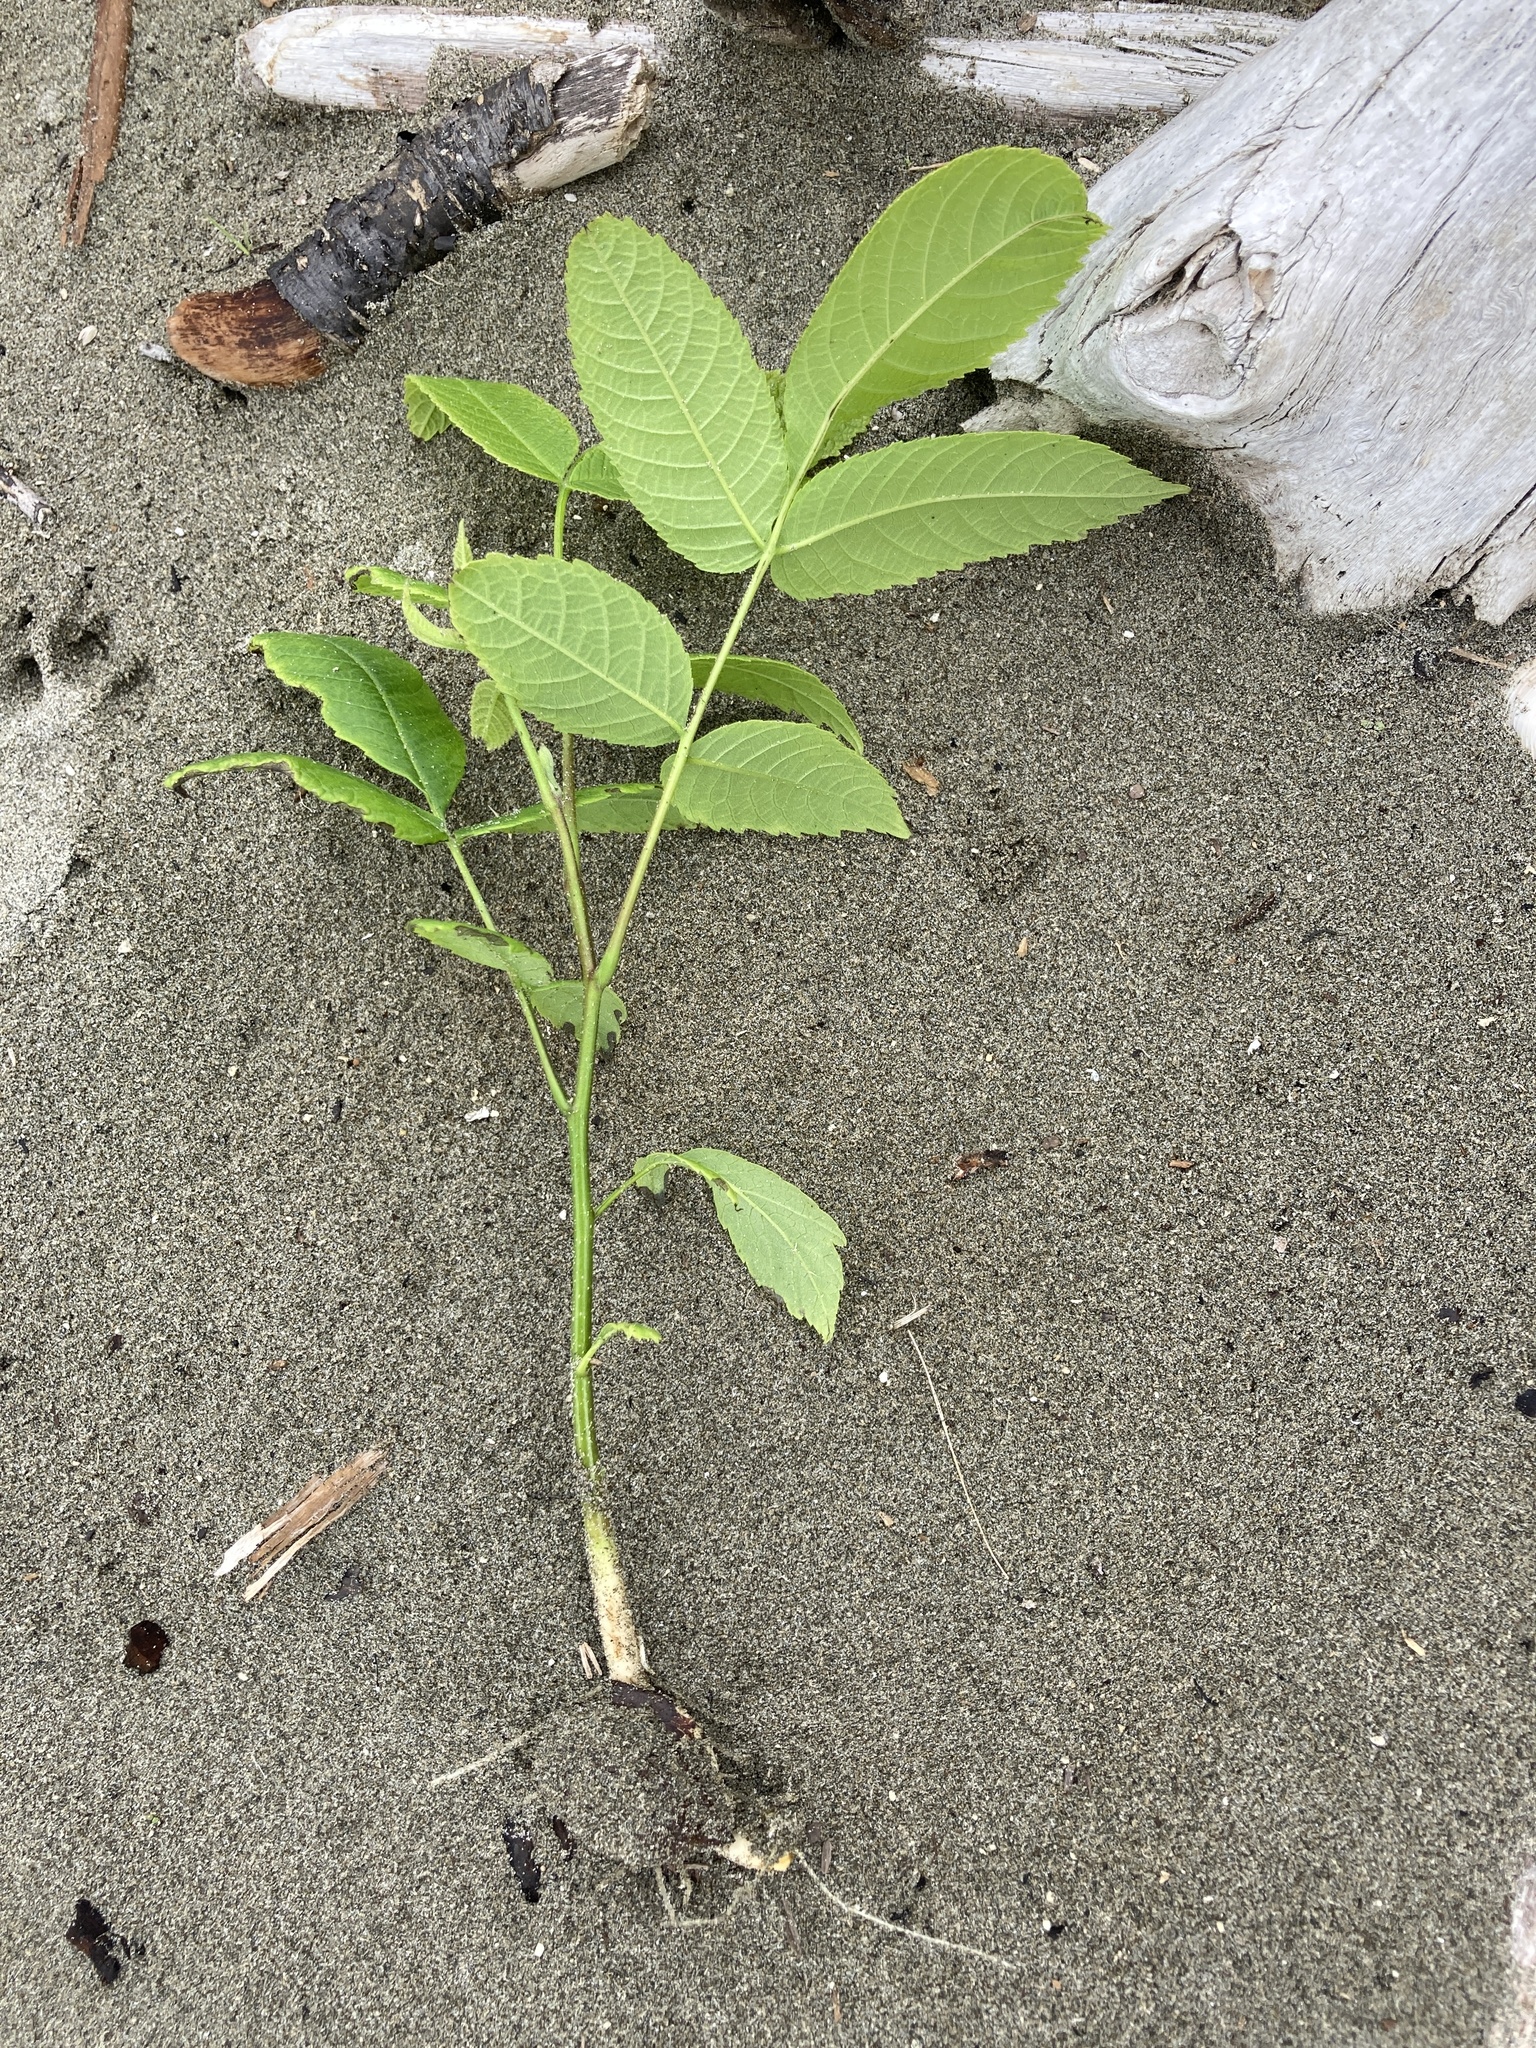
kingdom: Plantae
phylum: Tracheophyta
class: Magnoliopsida
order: Fagales
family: Juglandaceae
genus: Juglans
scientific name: Juglans ailantifolia
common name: Japanese walnut
